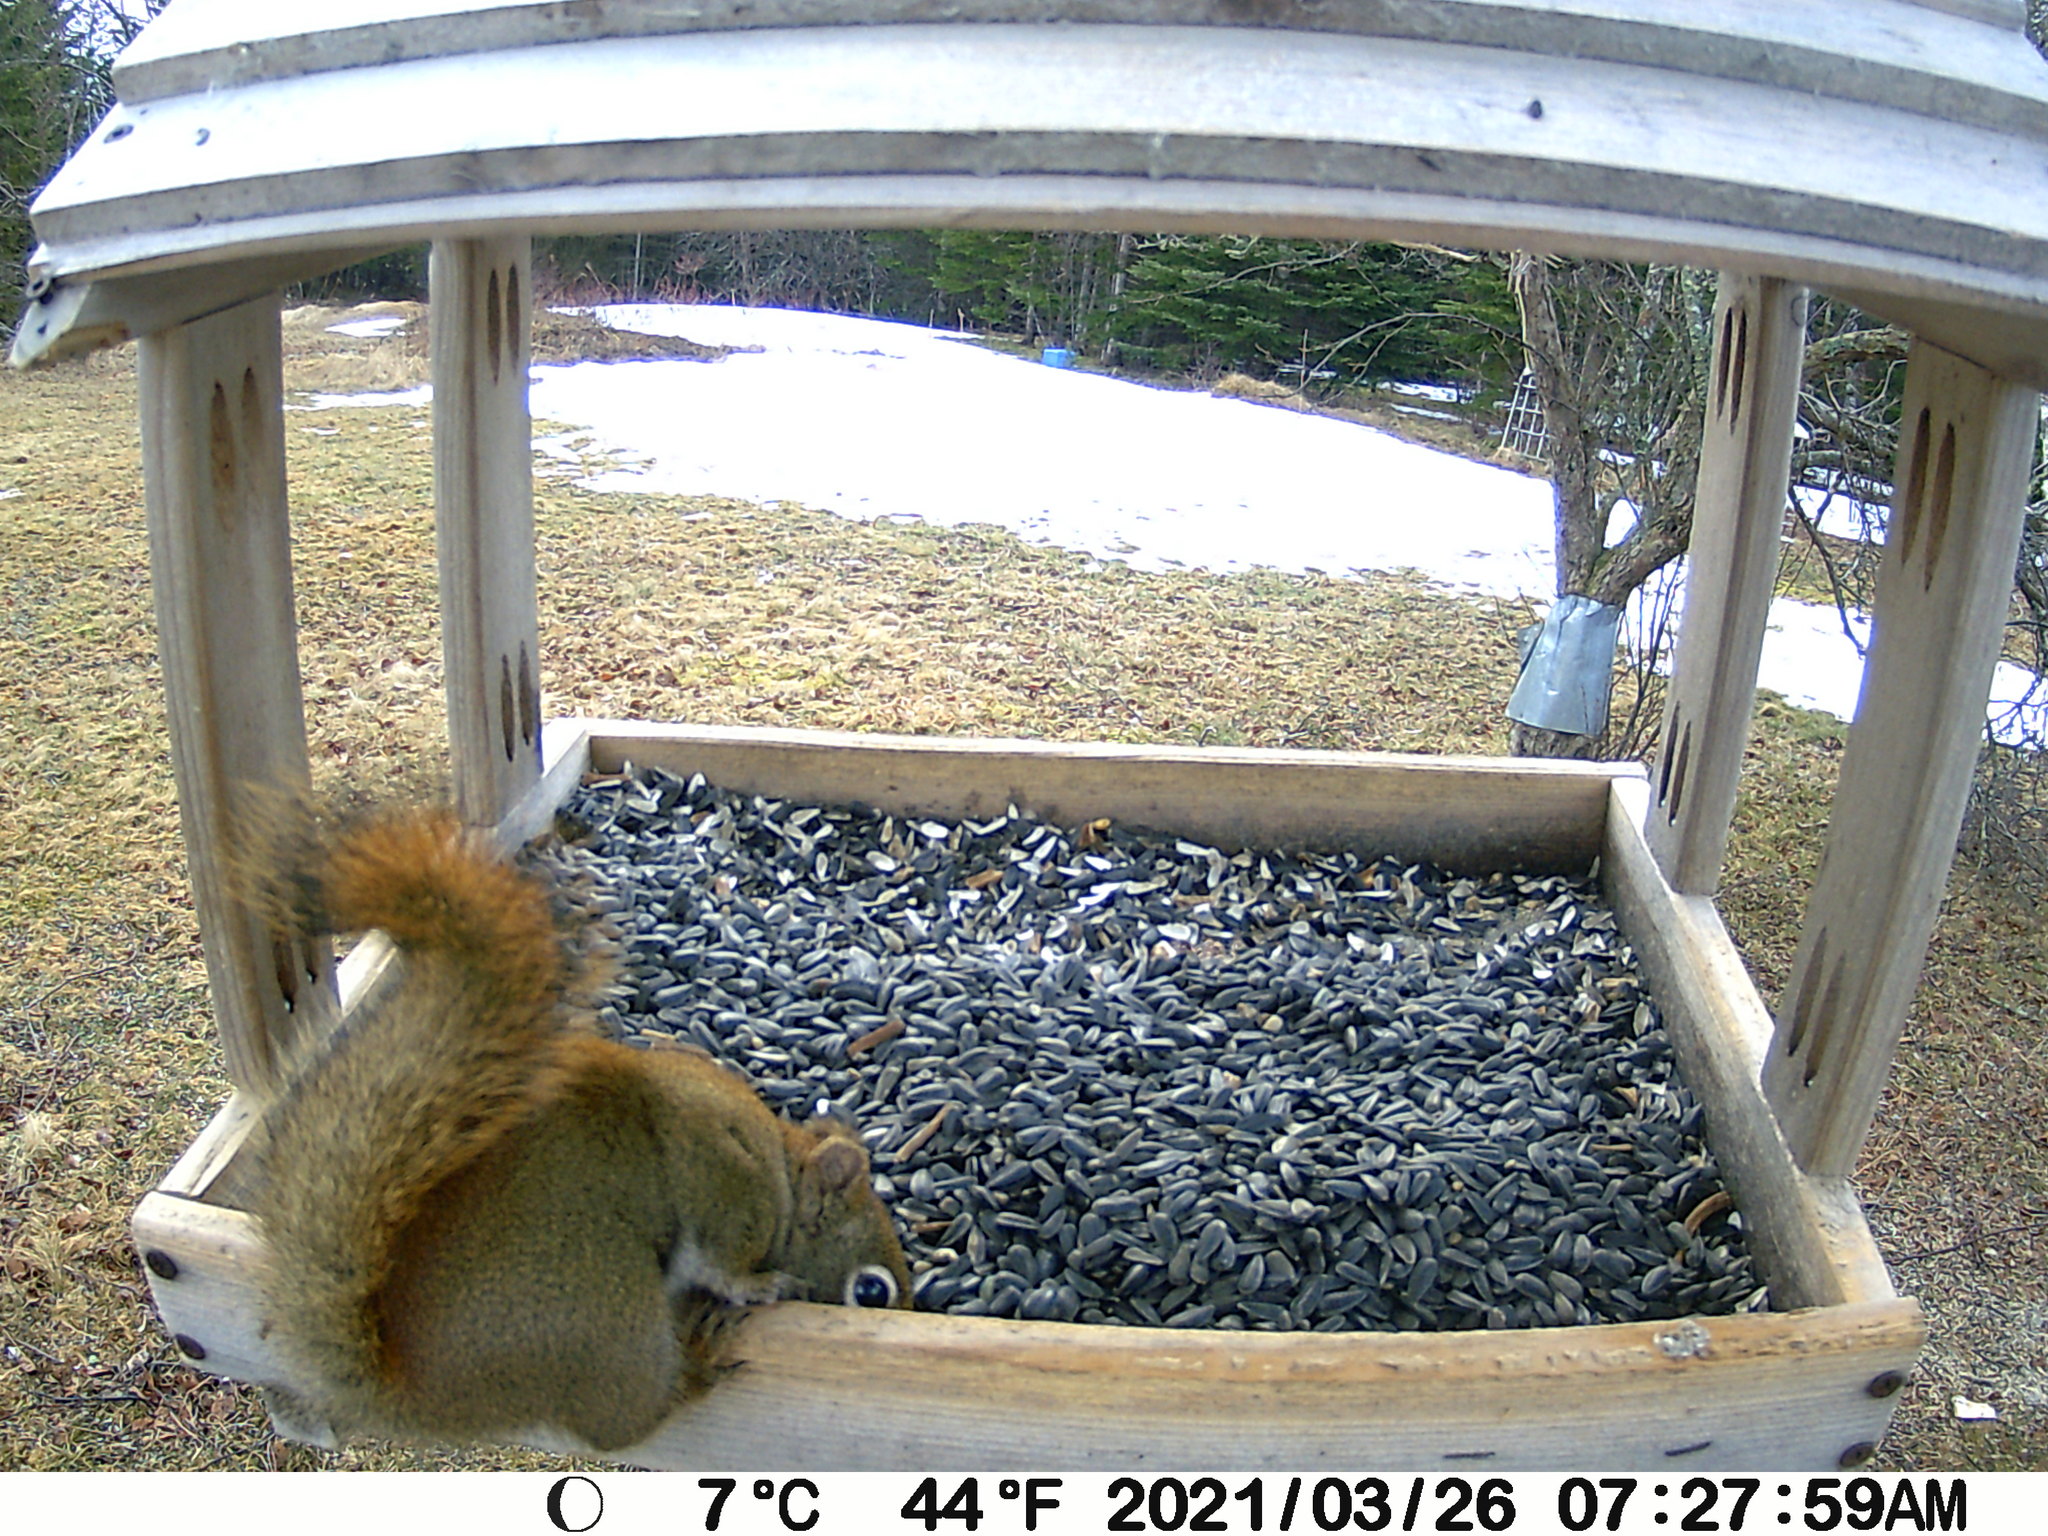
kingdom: Animalia
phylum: Chordata
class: Mammalia
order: Rodentia
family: Sciuridae
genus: Tamiasciurus
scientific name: Tamiasciurus hudsonicus
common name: Red squirrel
